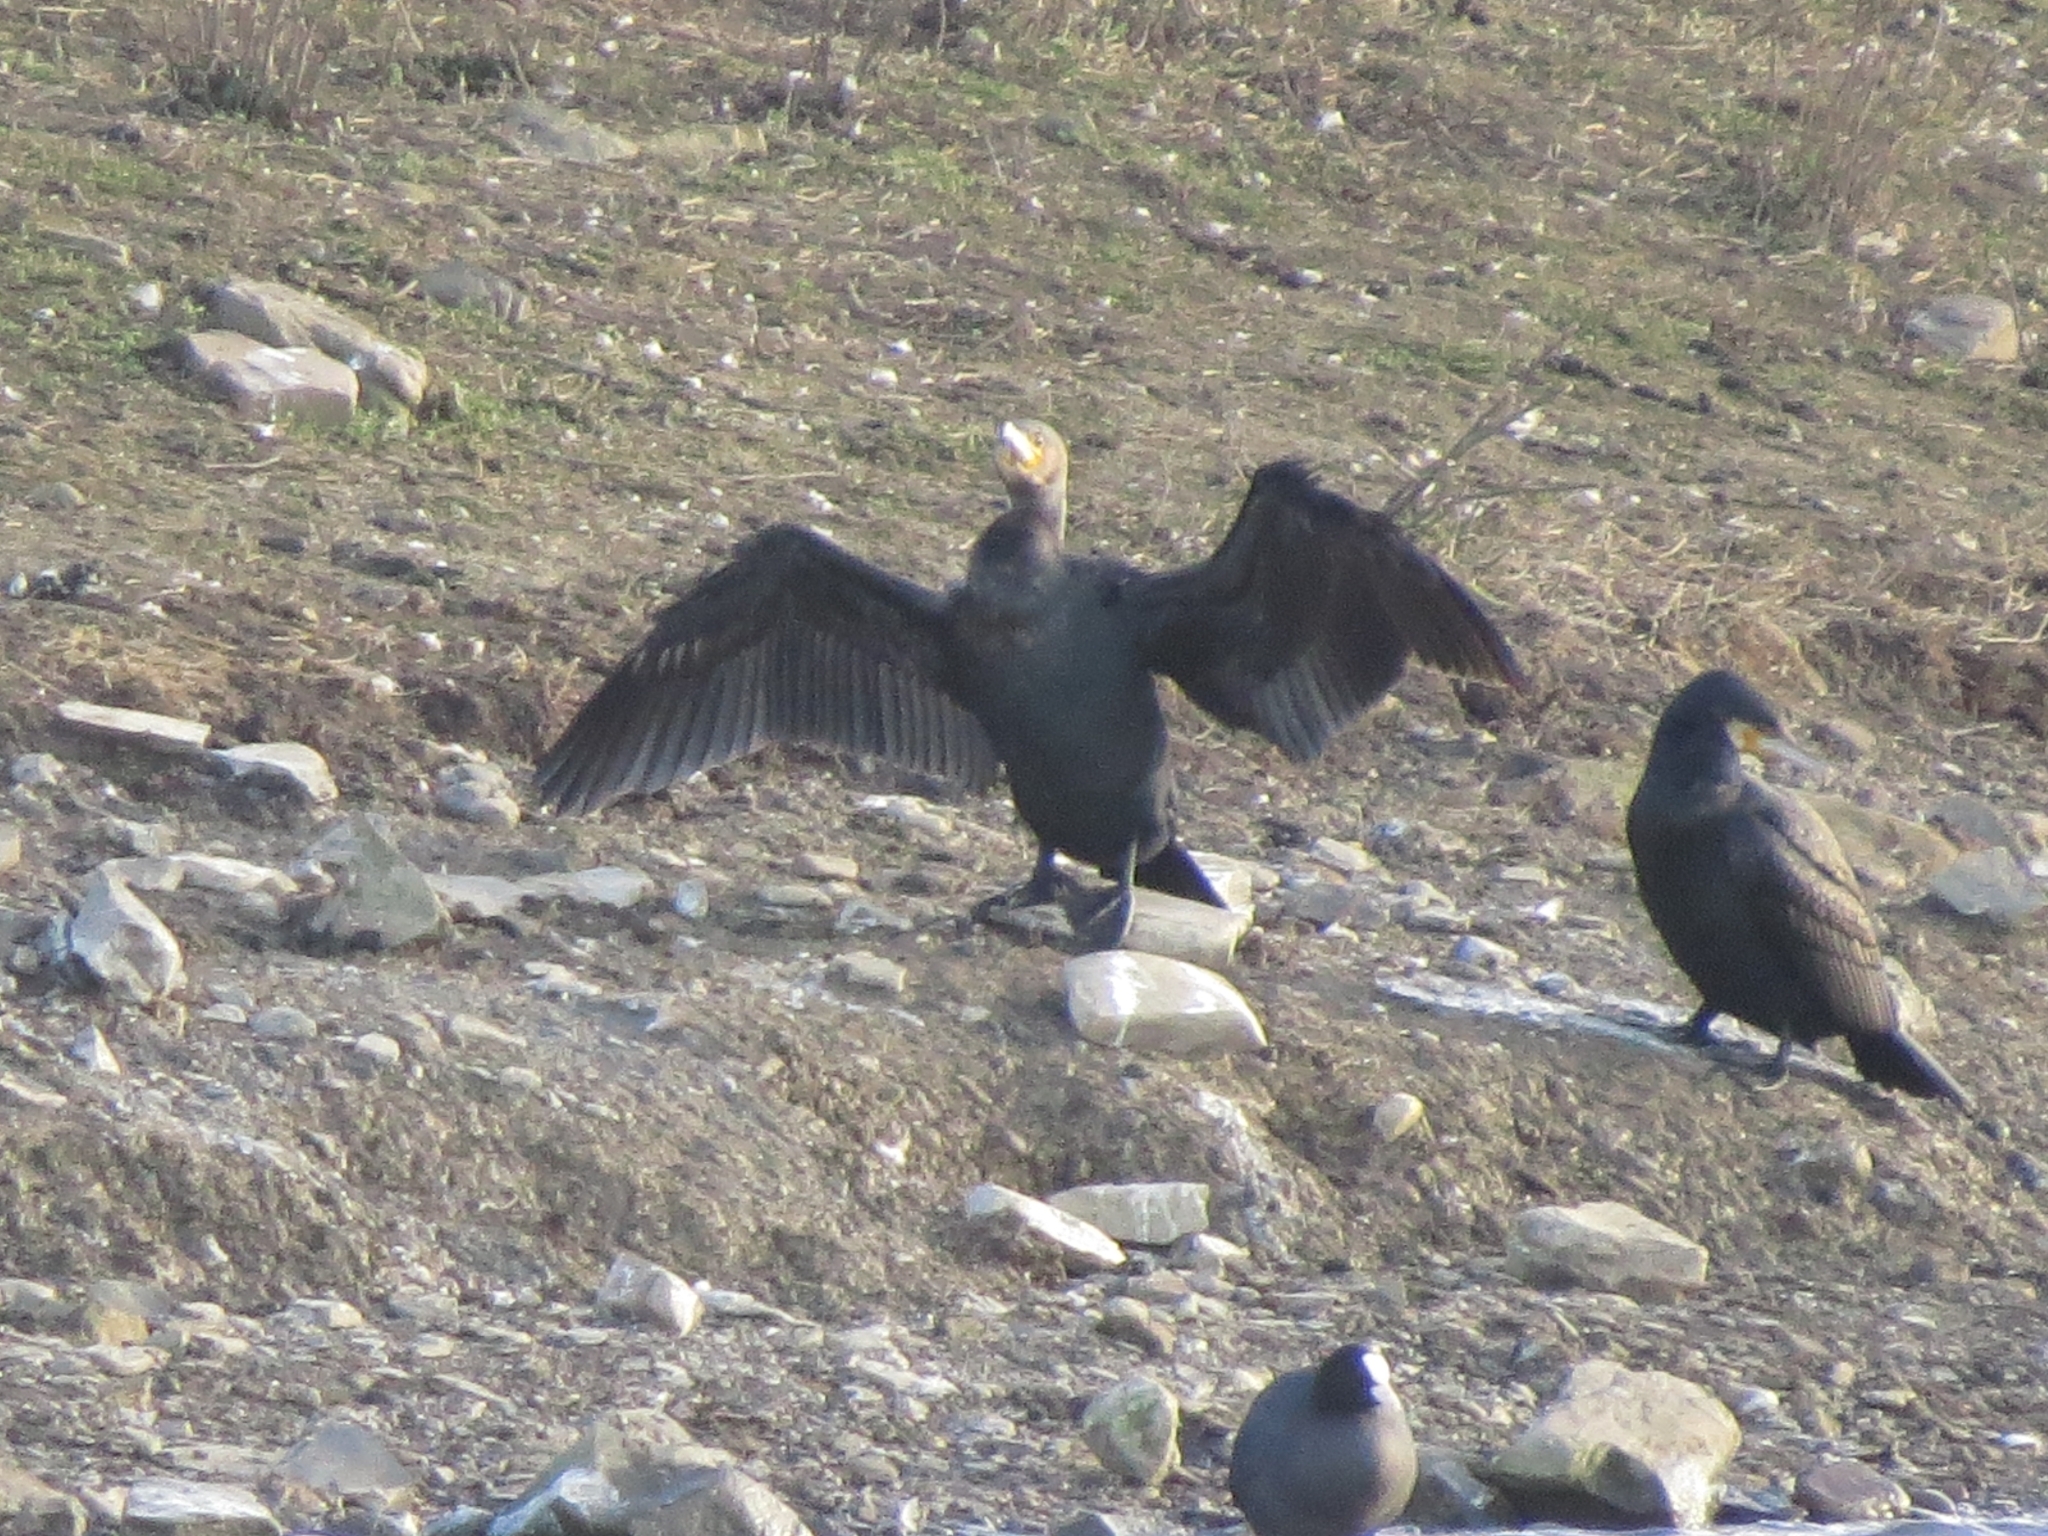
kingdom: Animalia
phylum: Chordata
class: Aves
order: Suliformes
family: Phalacrocoracidae
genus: Phalacrocorax
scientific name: Phalacrocorax carbo
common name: Great cormorant
